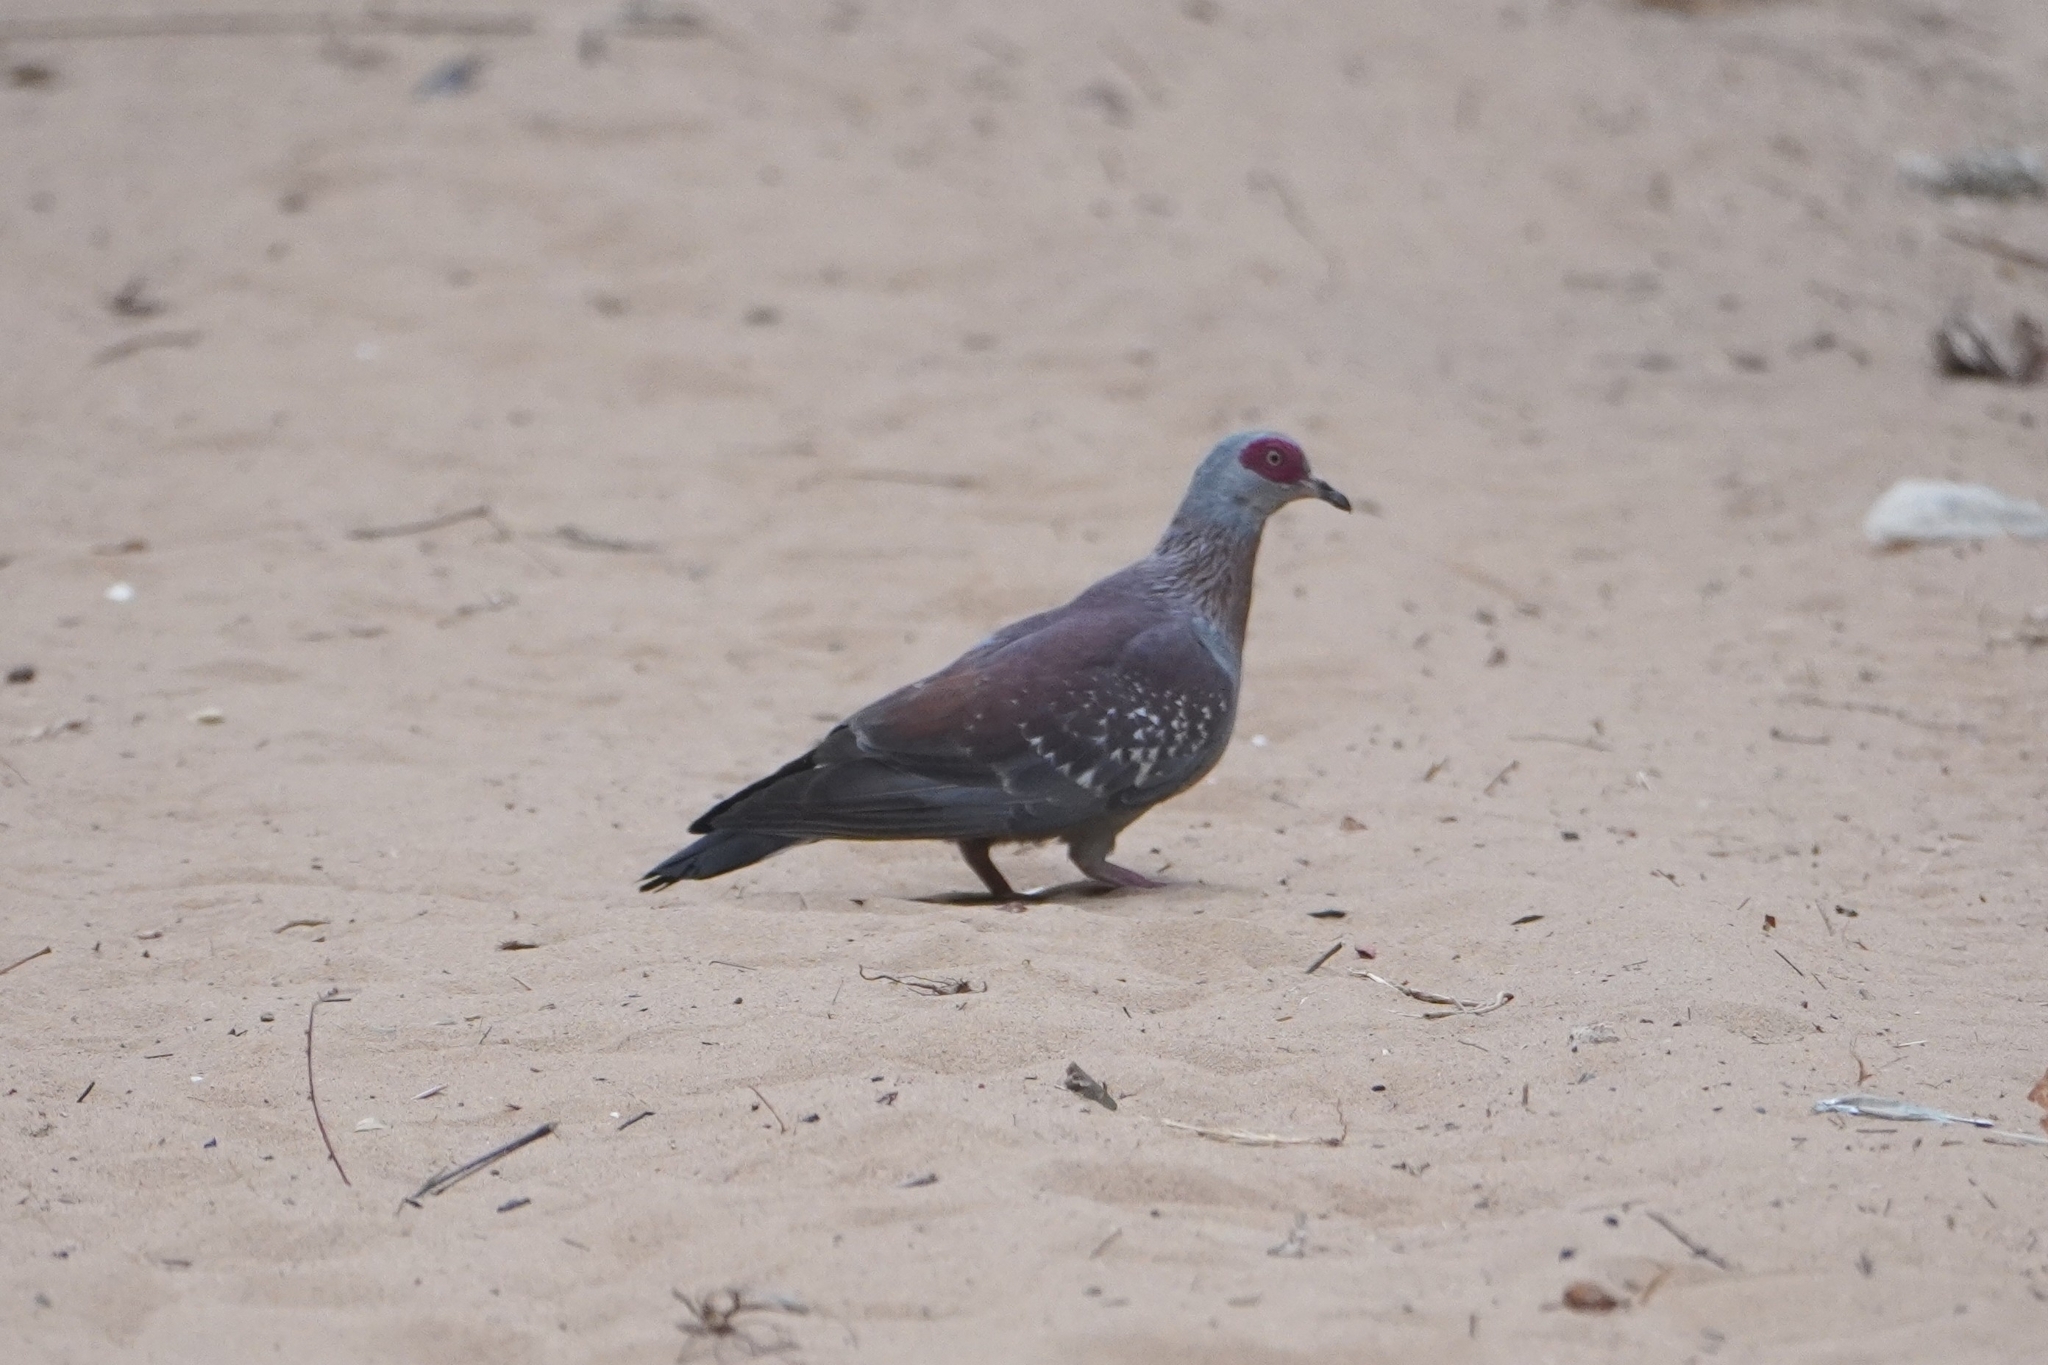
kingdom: Animalia
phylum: Chordata
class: Aves
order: Columbiformes
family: Columbidae
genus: Columba
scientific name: Columba guinea
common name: Speckled pigeon
